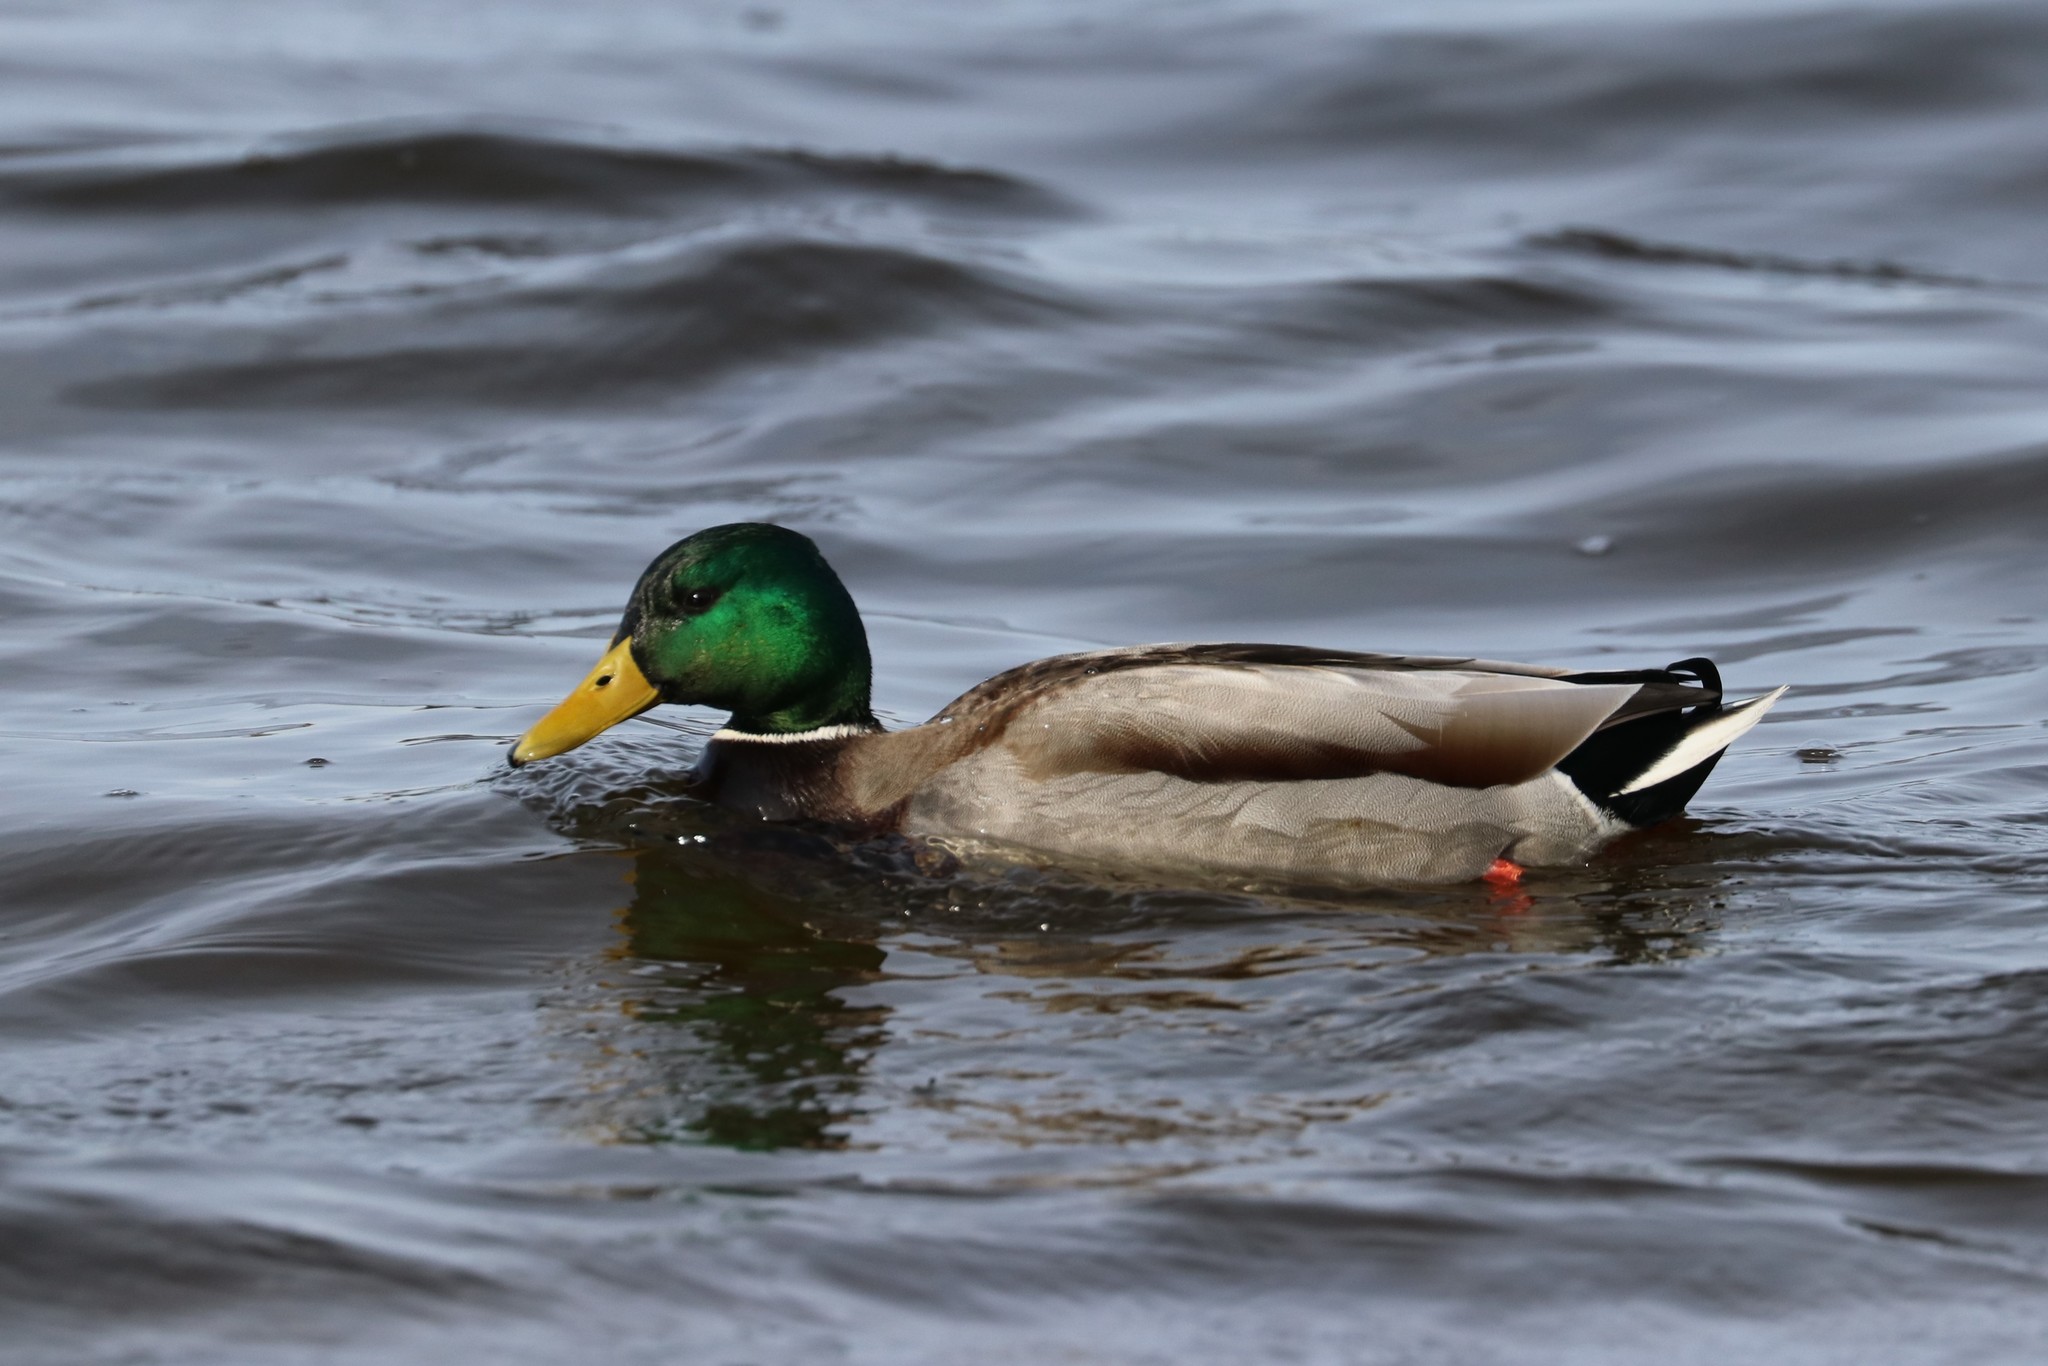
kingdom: Animalia
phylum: Chordata
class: Aves
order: Anseriformes
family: Anatidae
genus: Anas
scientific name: Anas platyrhynchos
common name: Mallard
